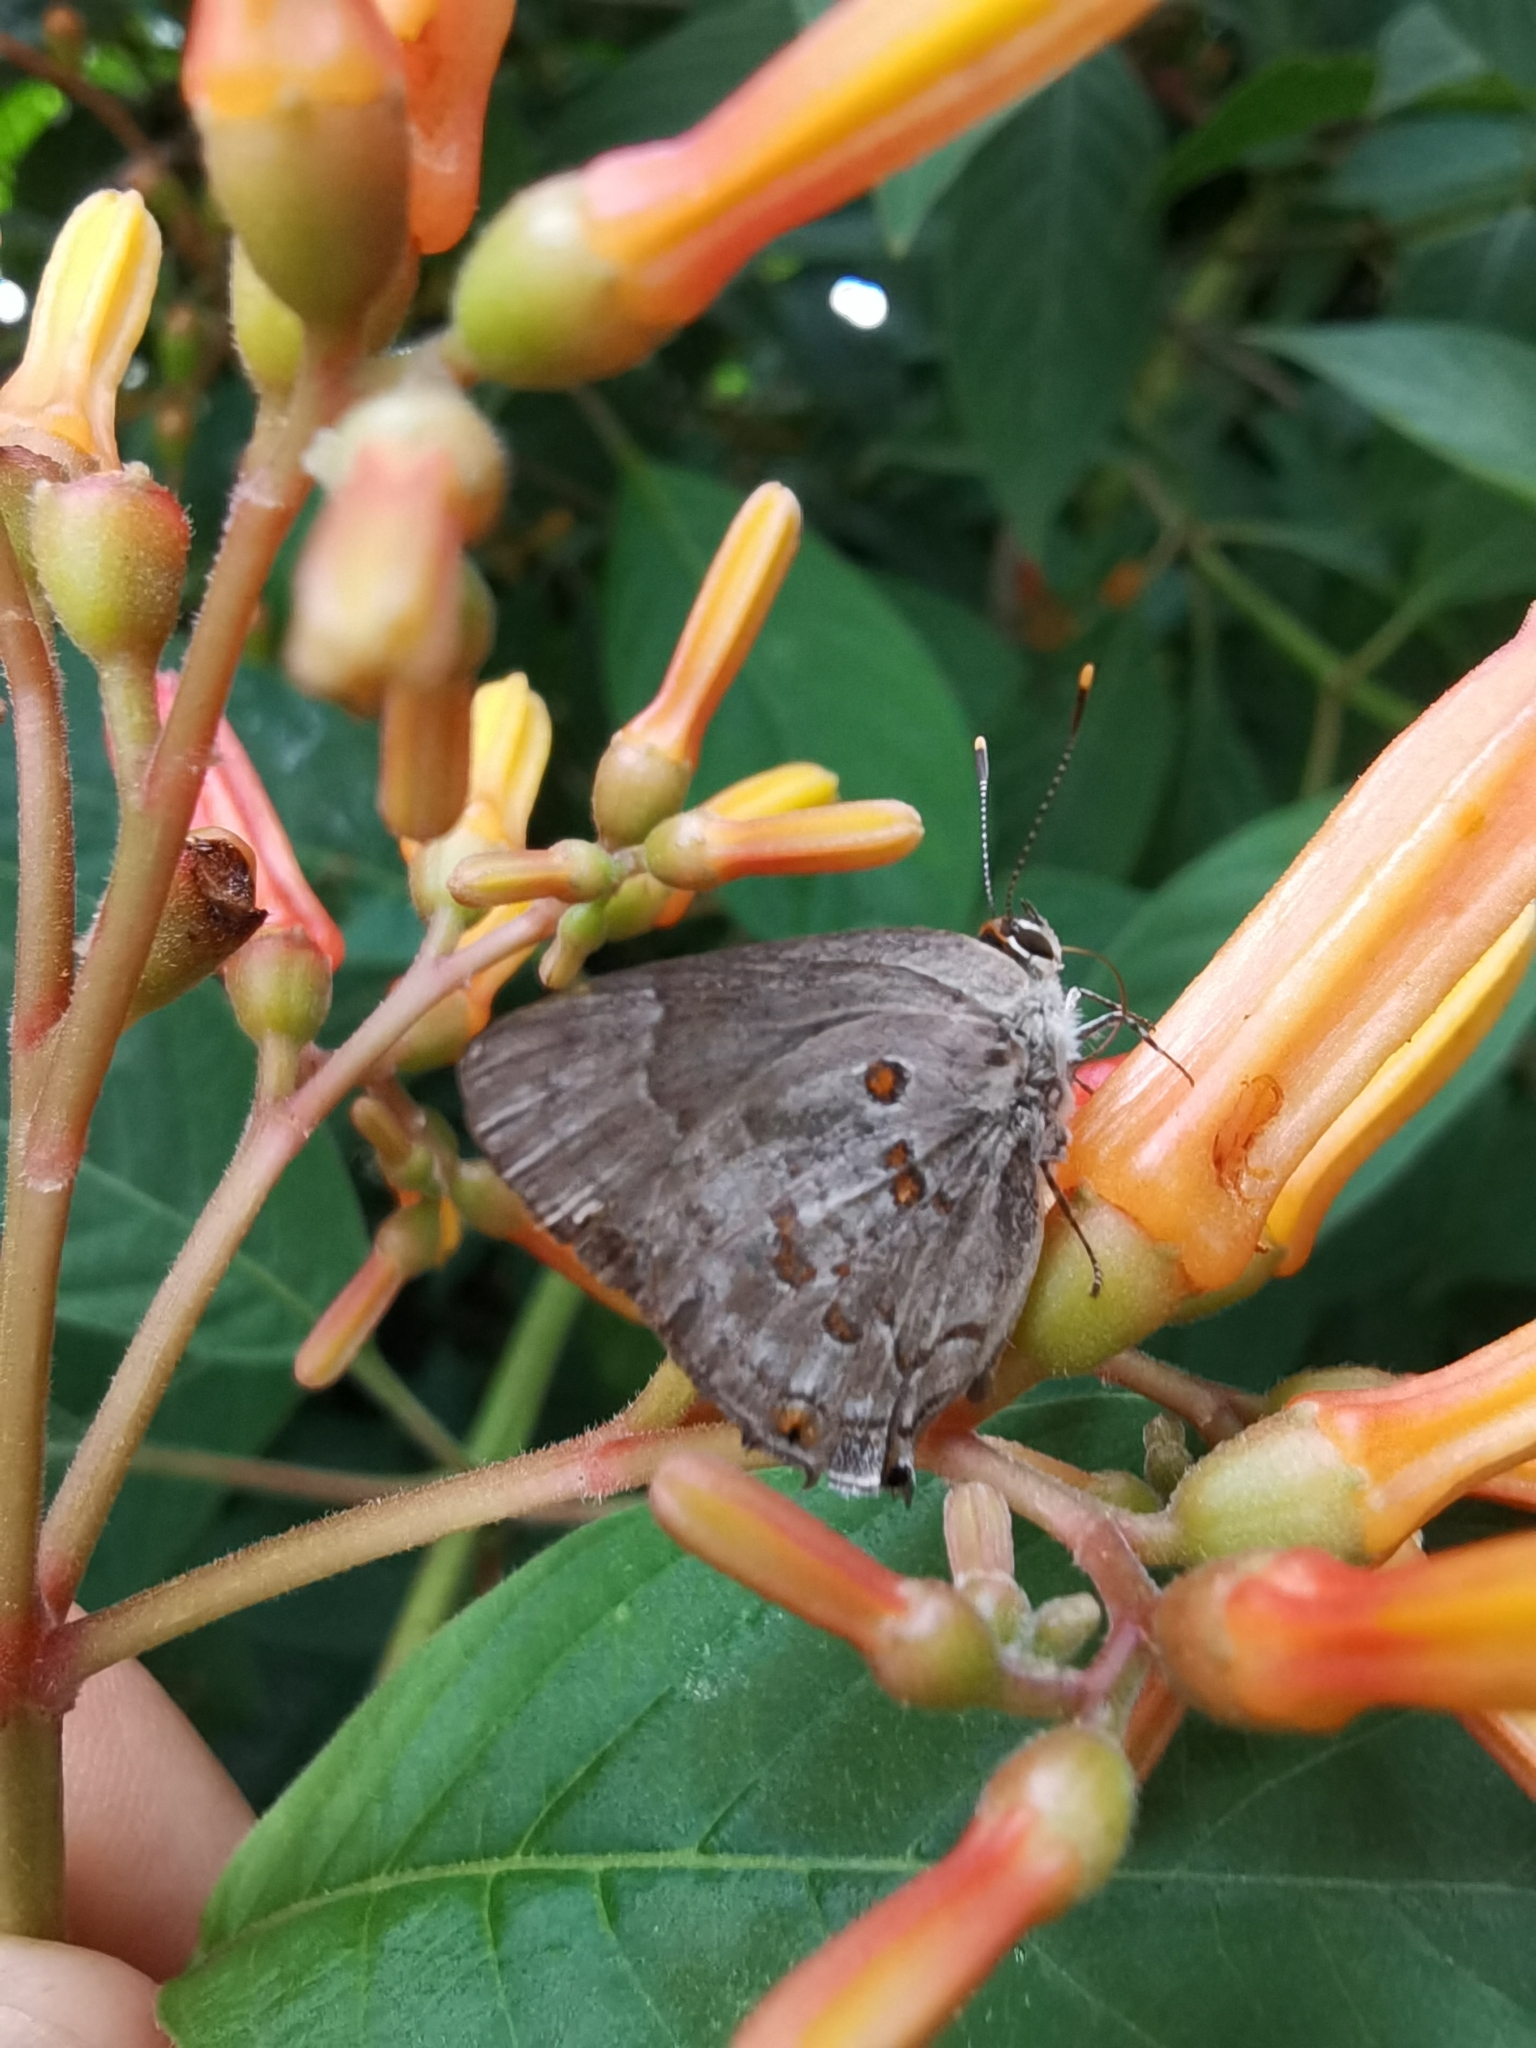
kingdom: Animalia
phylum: Arthropoda
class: Insecta
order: Lepidoptera
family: Lycaenidae
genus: Tmolus
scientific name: Tmolus echion
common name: Red-spotted hairstreak
